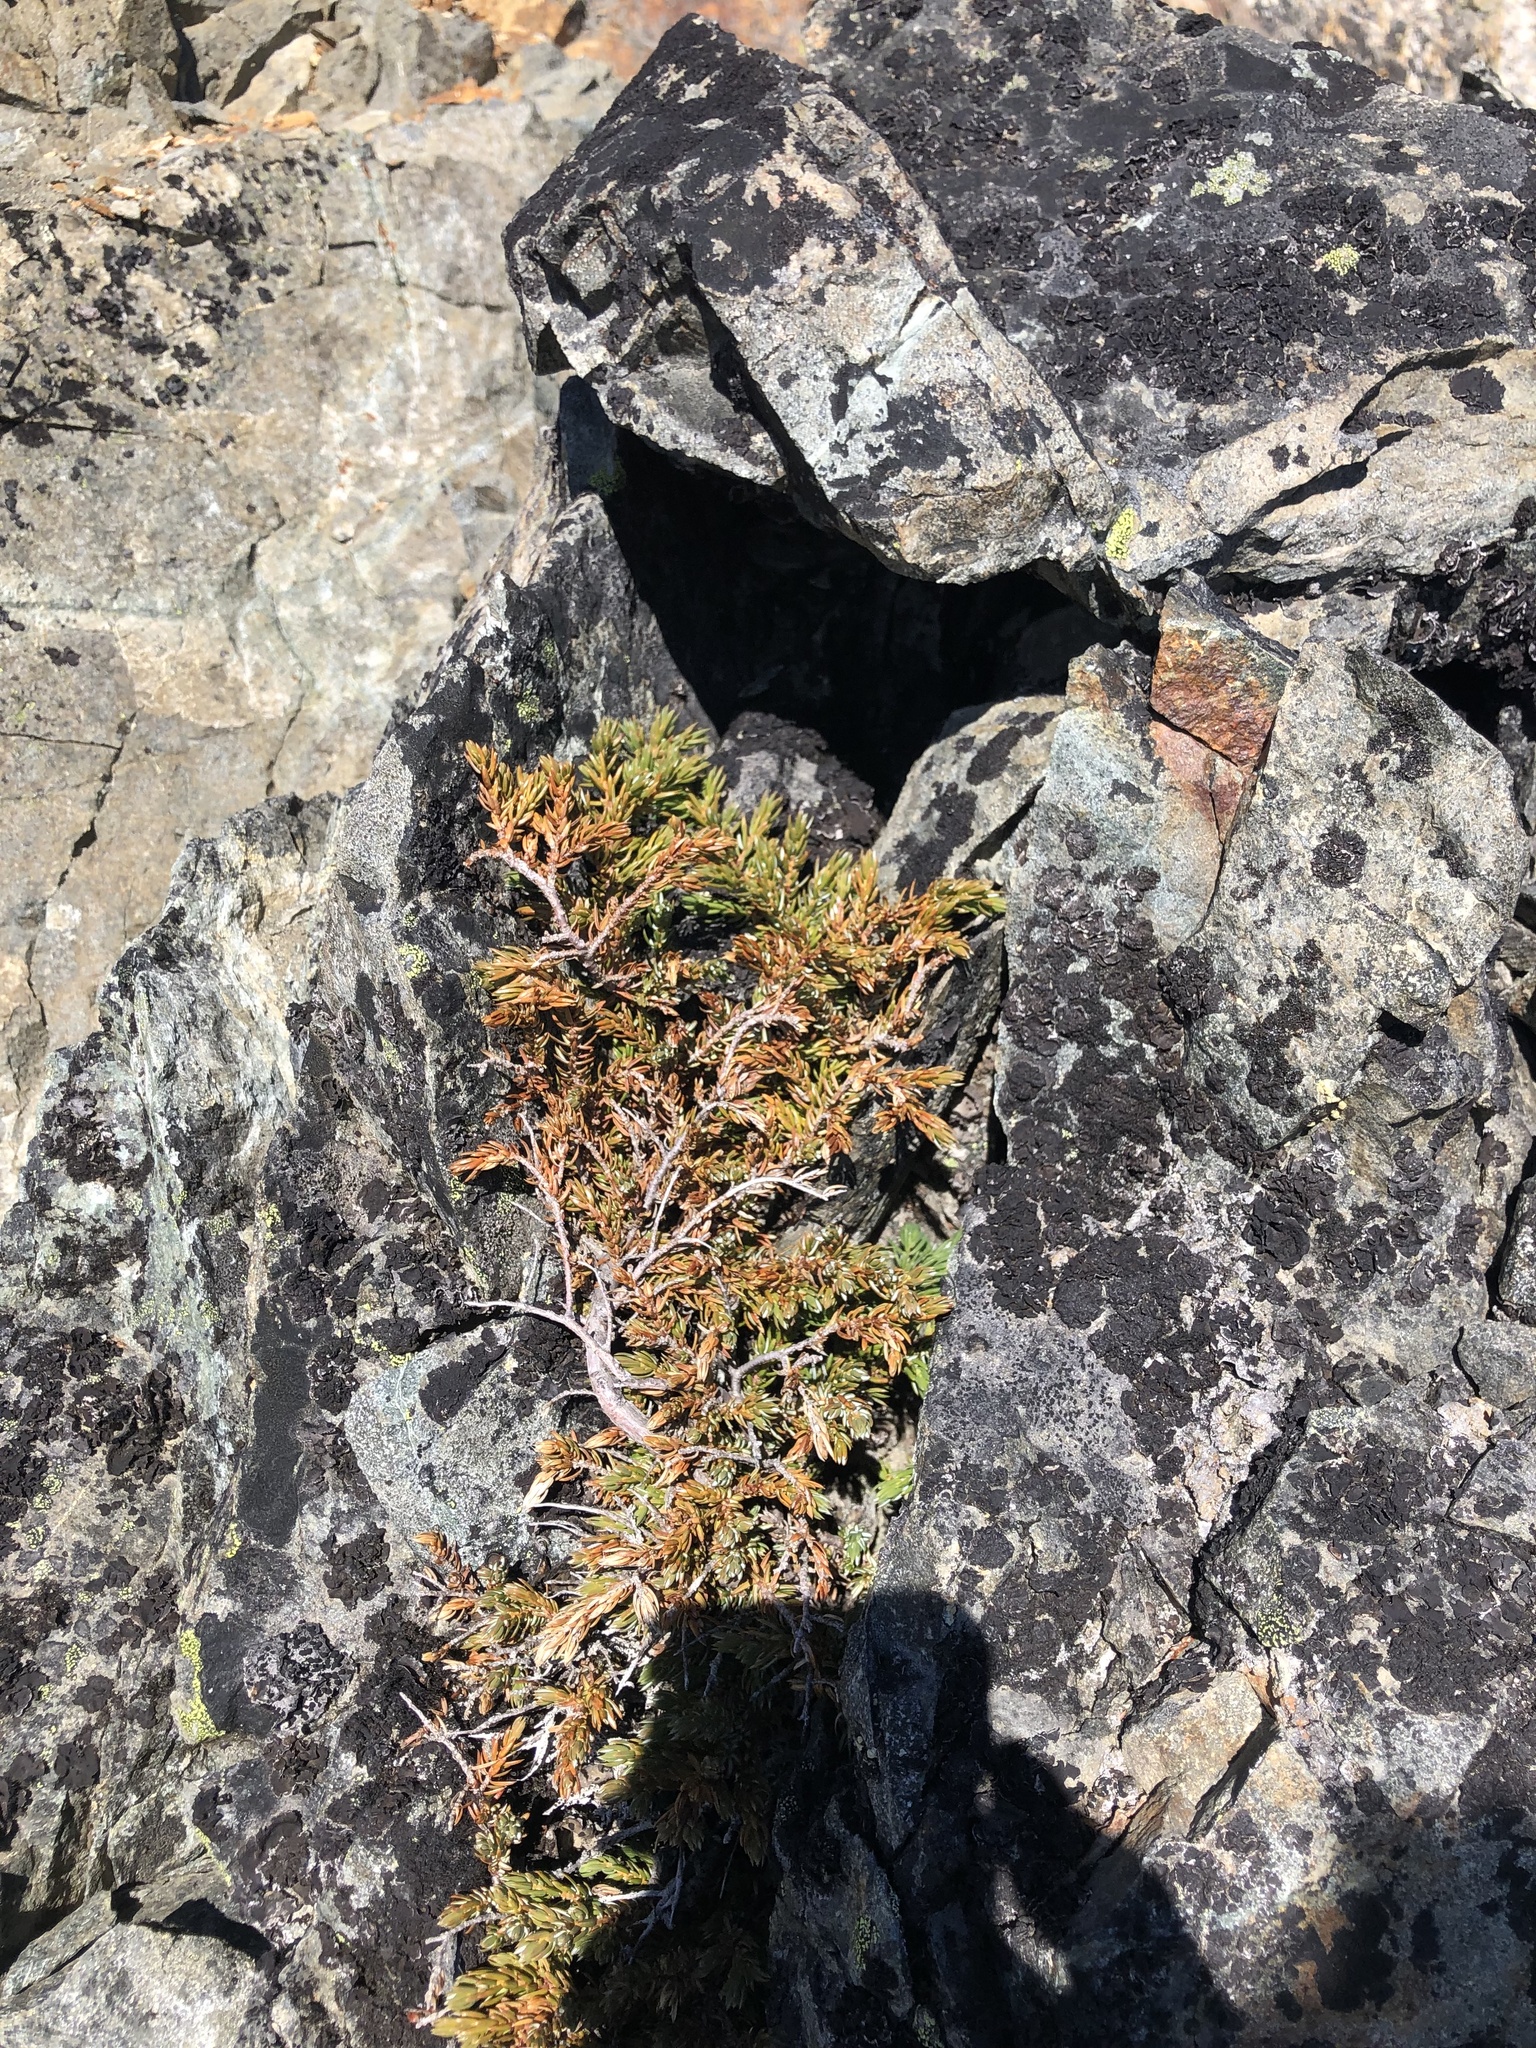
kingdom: Plantae
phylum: Tracheophyta
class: Pinopsida
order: Pinales
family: Cupressaceae
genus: Juniperus
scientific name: Juniperus communis
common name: Common juniper
